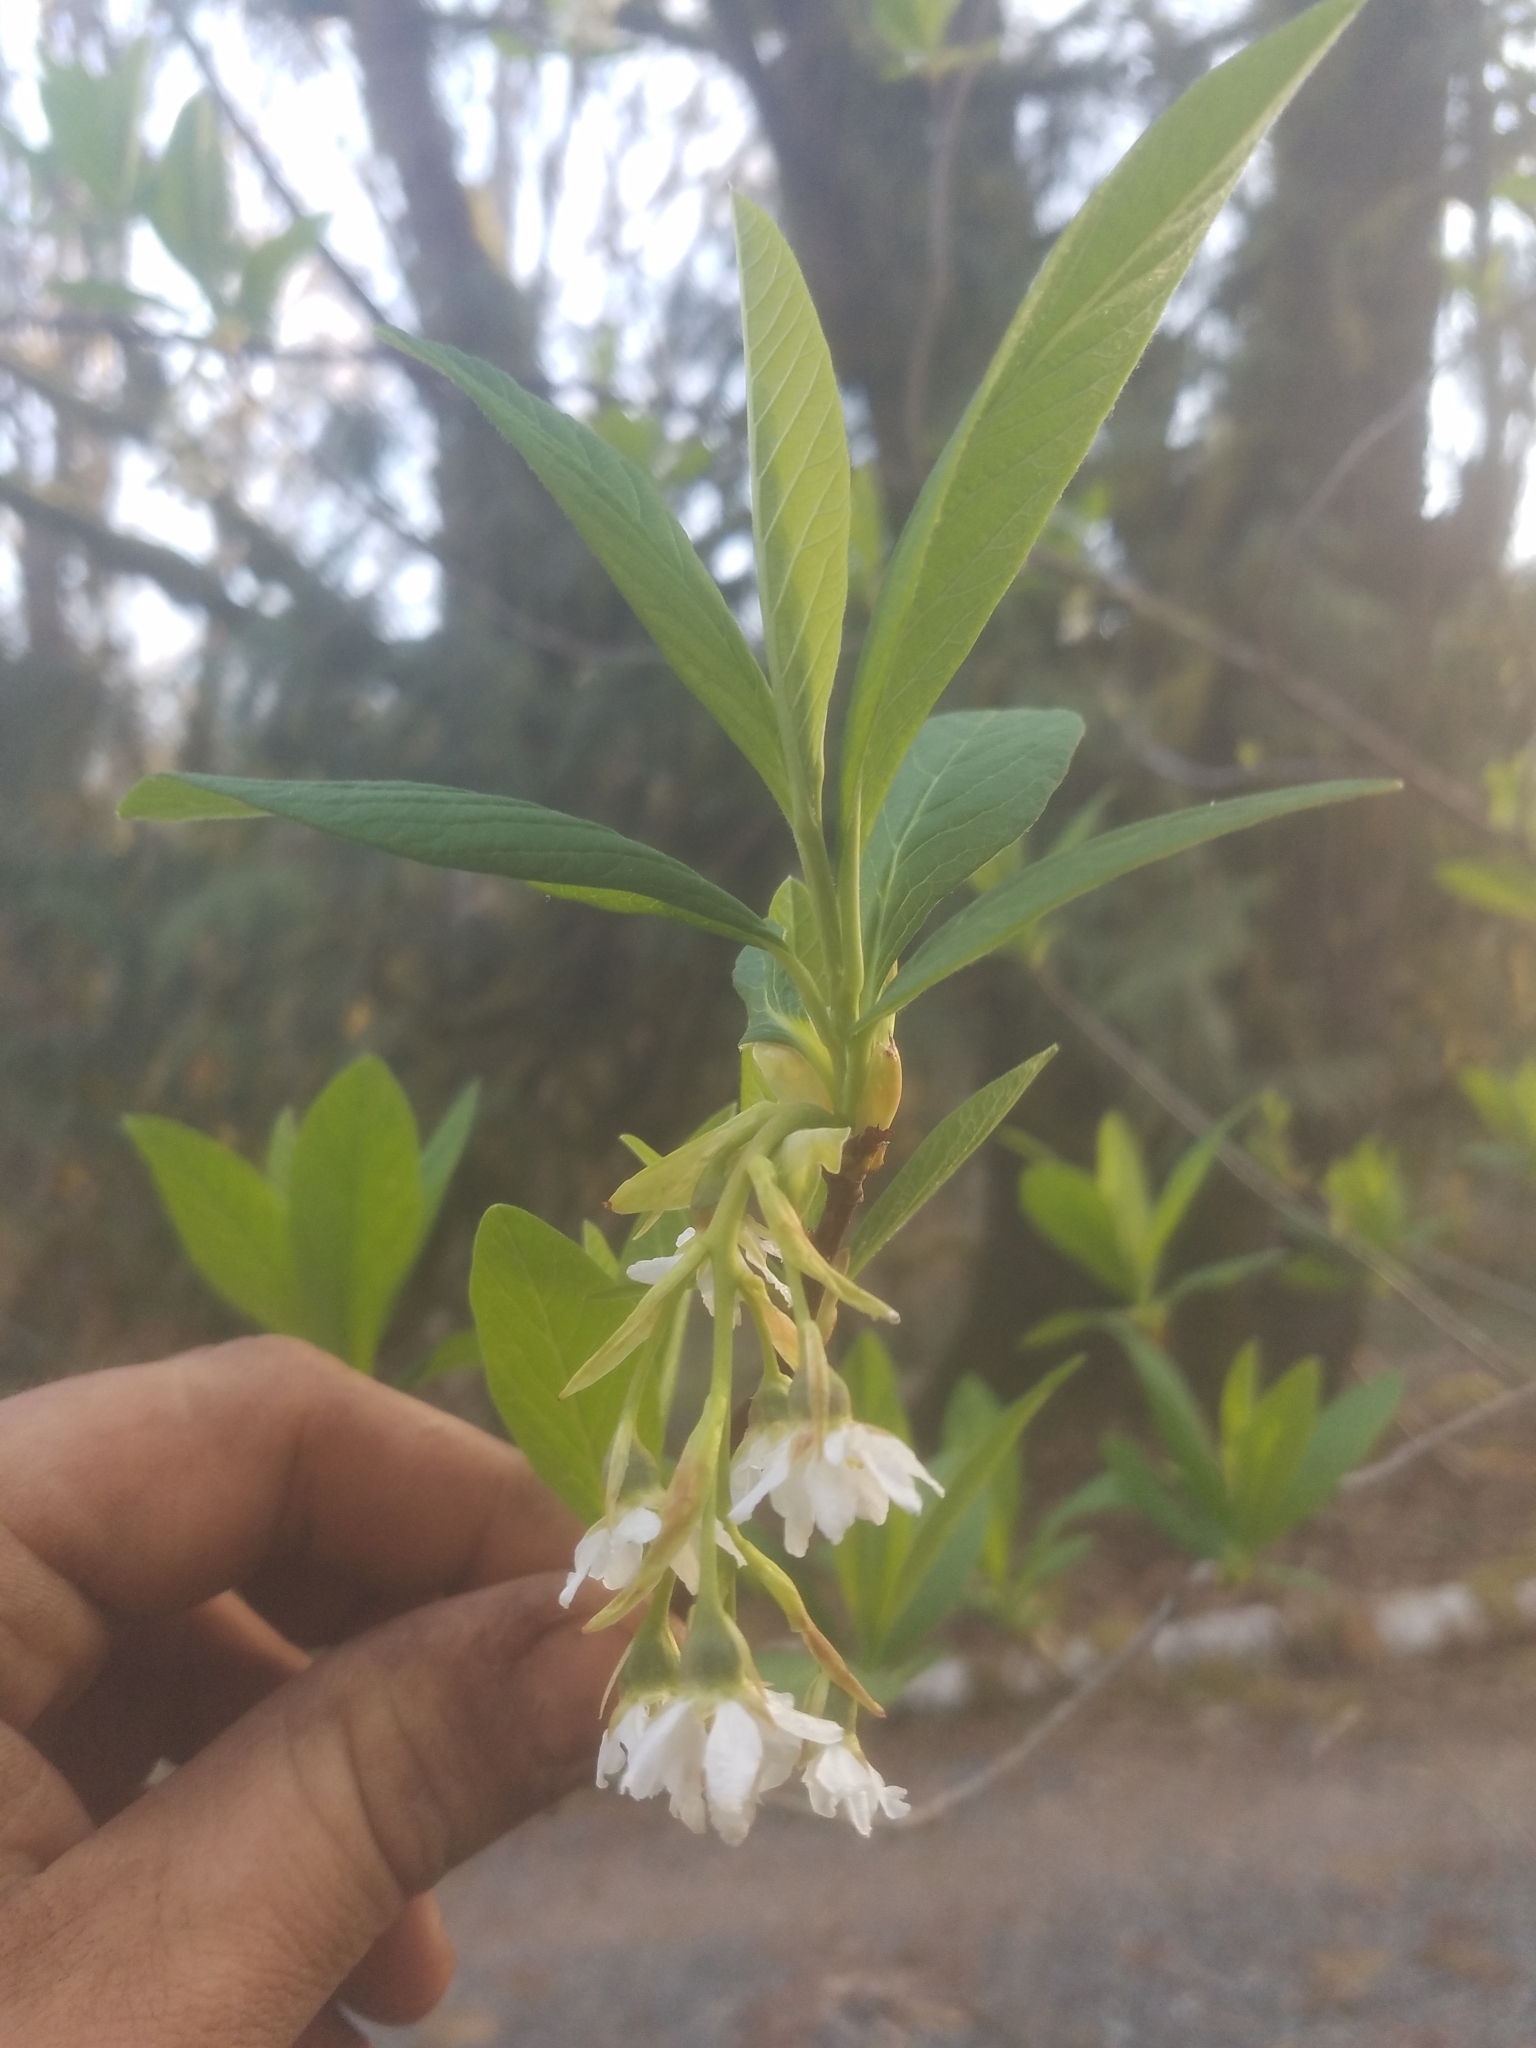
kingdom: Plantae
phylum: Tracheophyta
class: Magnoliopsida
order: Rosales
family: Rosaceae
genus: Oemleria
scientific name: Oemleria cerasiformis
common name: Osoberry
